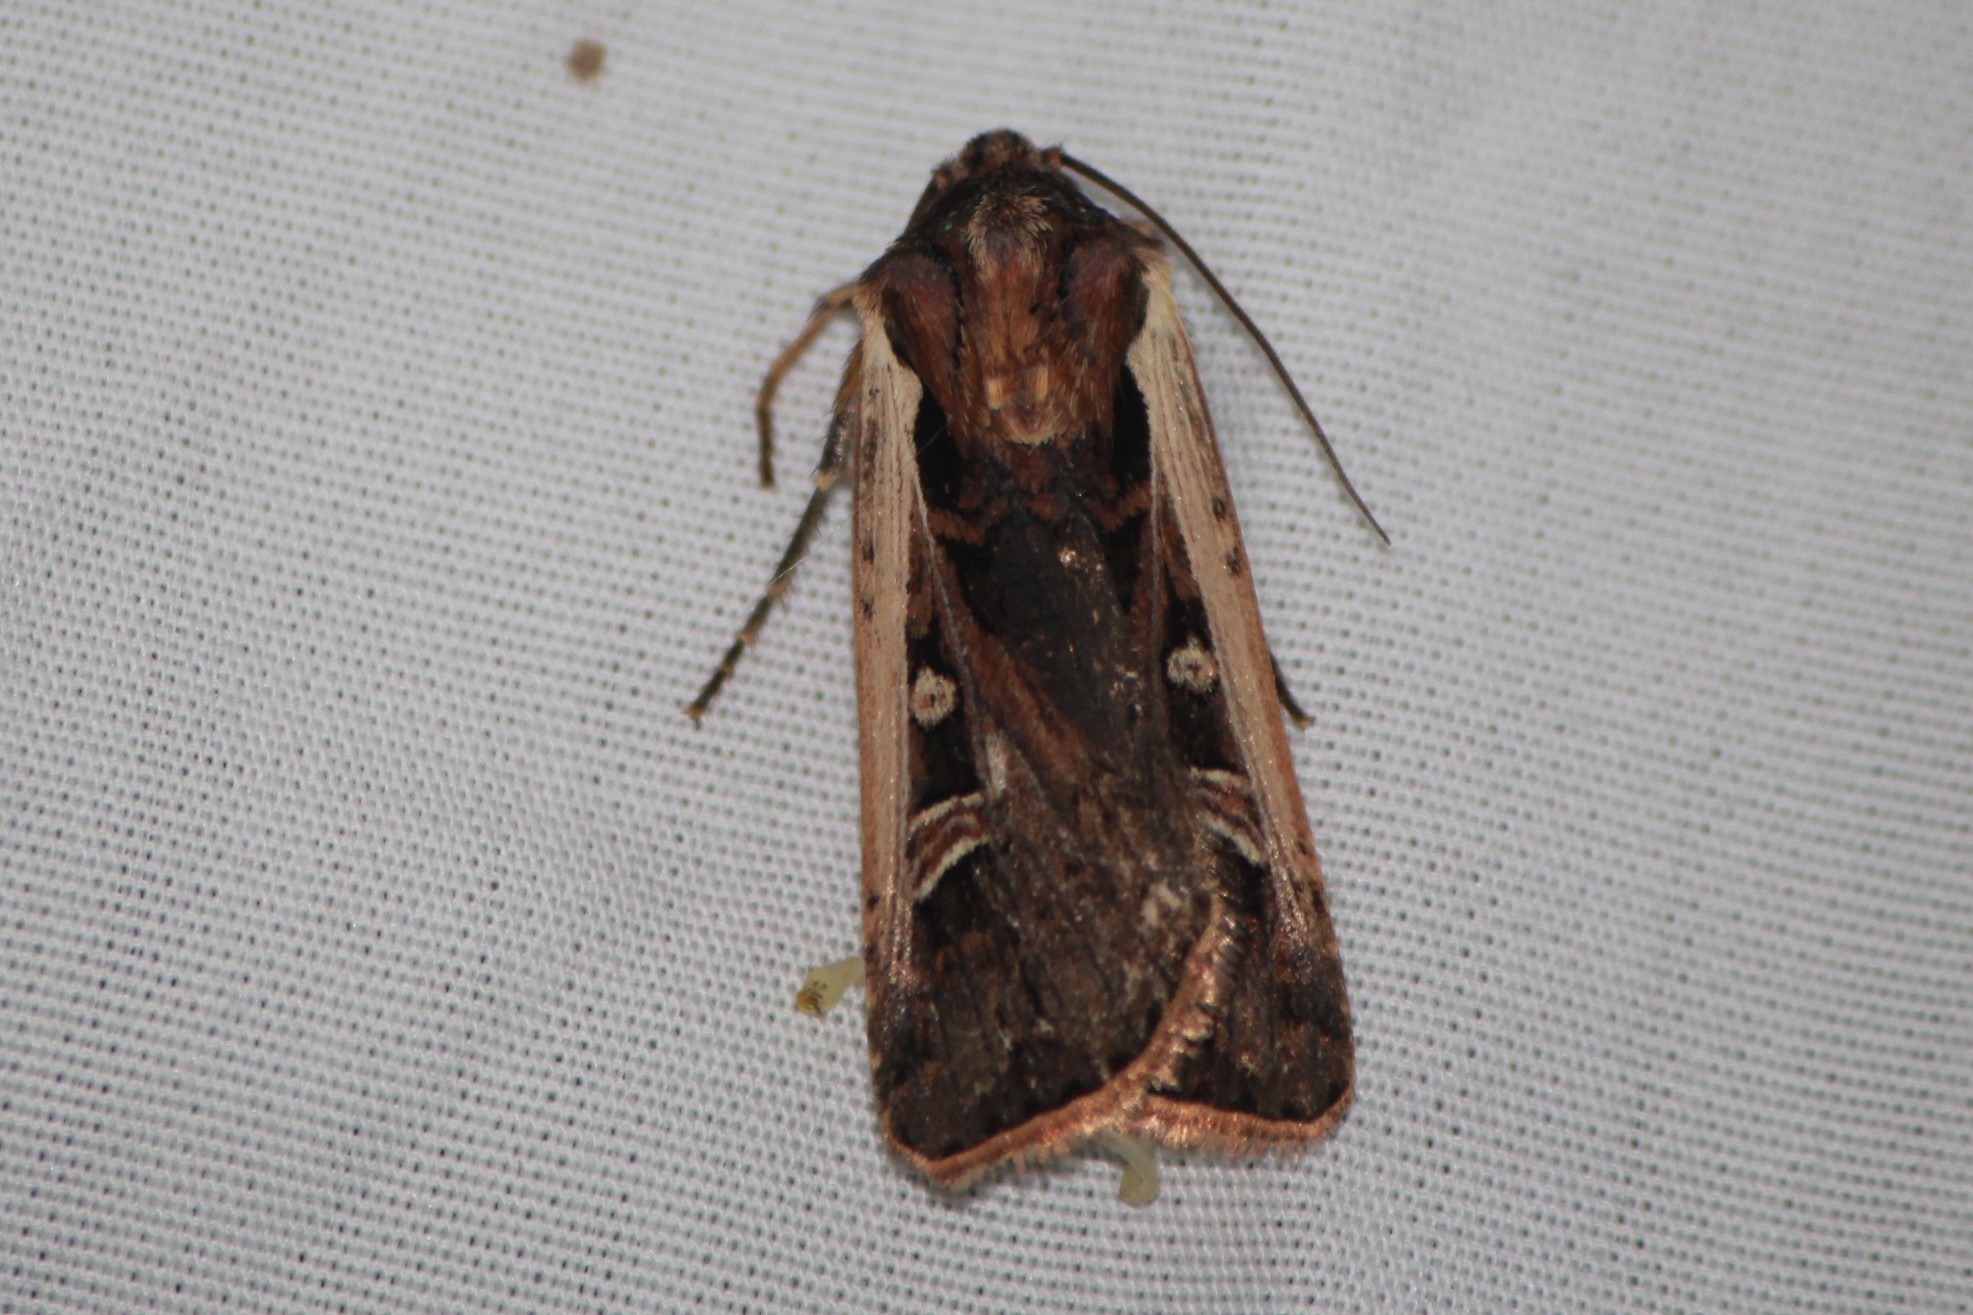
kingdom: Animalia
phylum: Arthropoda
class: Insecta
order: Lepidoptera
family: Noctuidae
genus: Striacosta
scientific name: Striacosta albicosta
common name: Western bean cutworm moth
